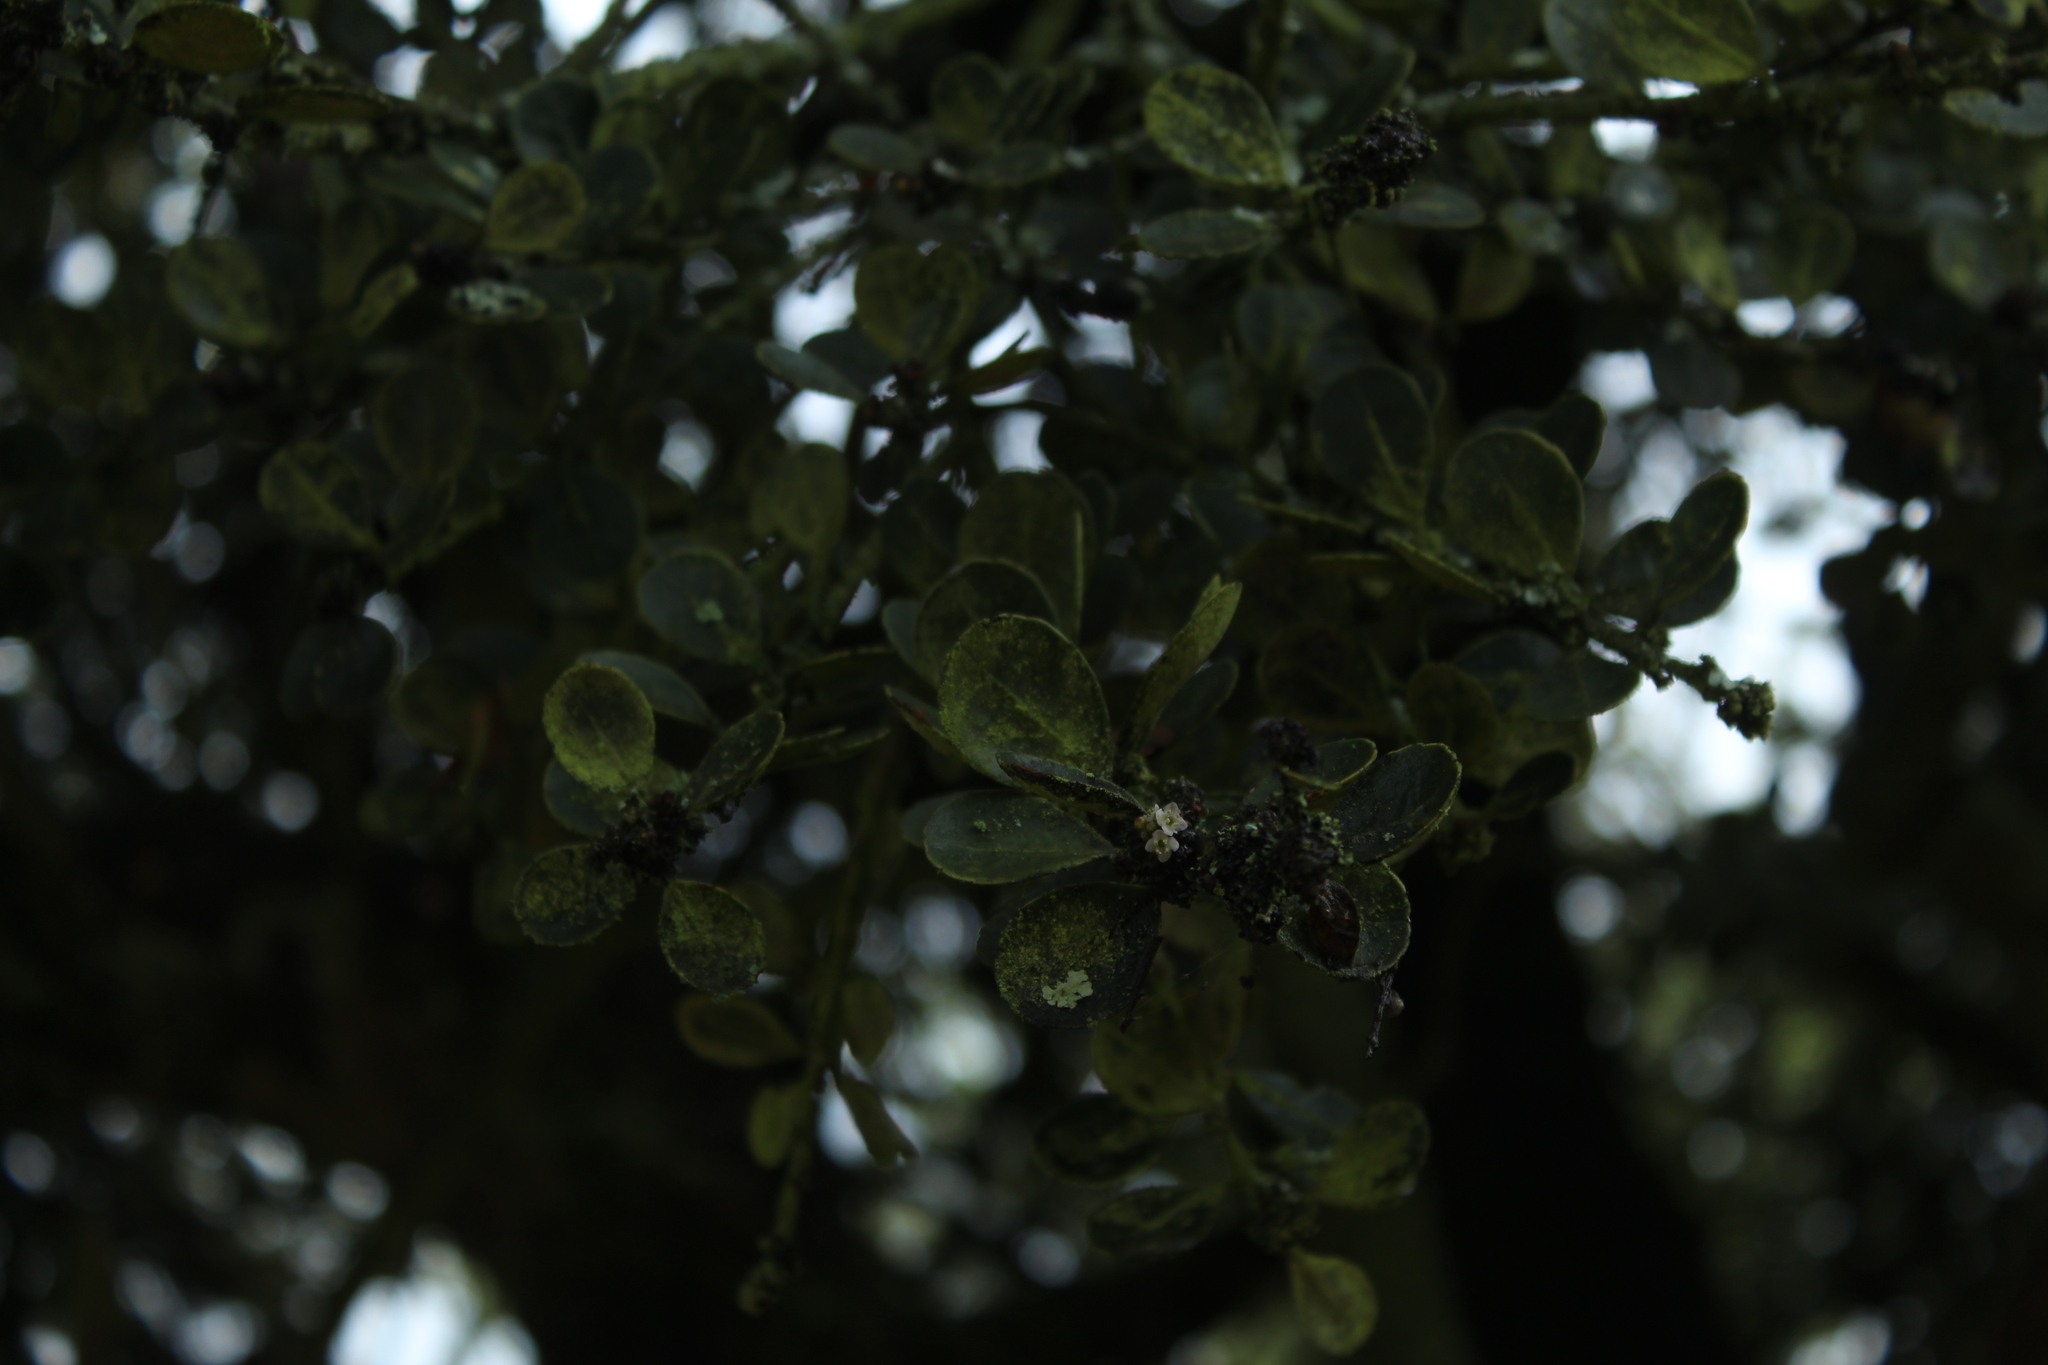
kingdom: Plantae
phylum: Tracheophyta
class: Magnoliopsida
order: Aquifoliales
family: Aquifoliaceae
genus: Ilex
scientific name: Ilex microphylla
